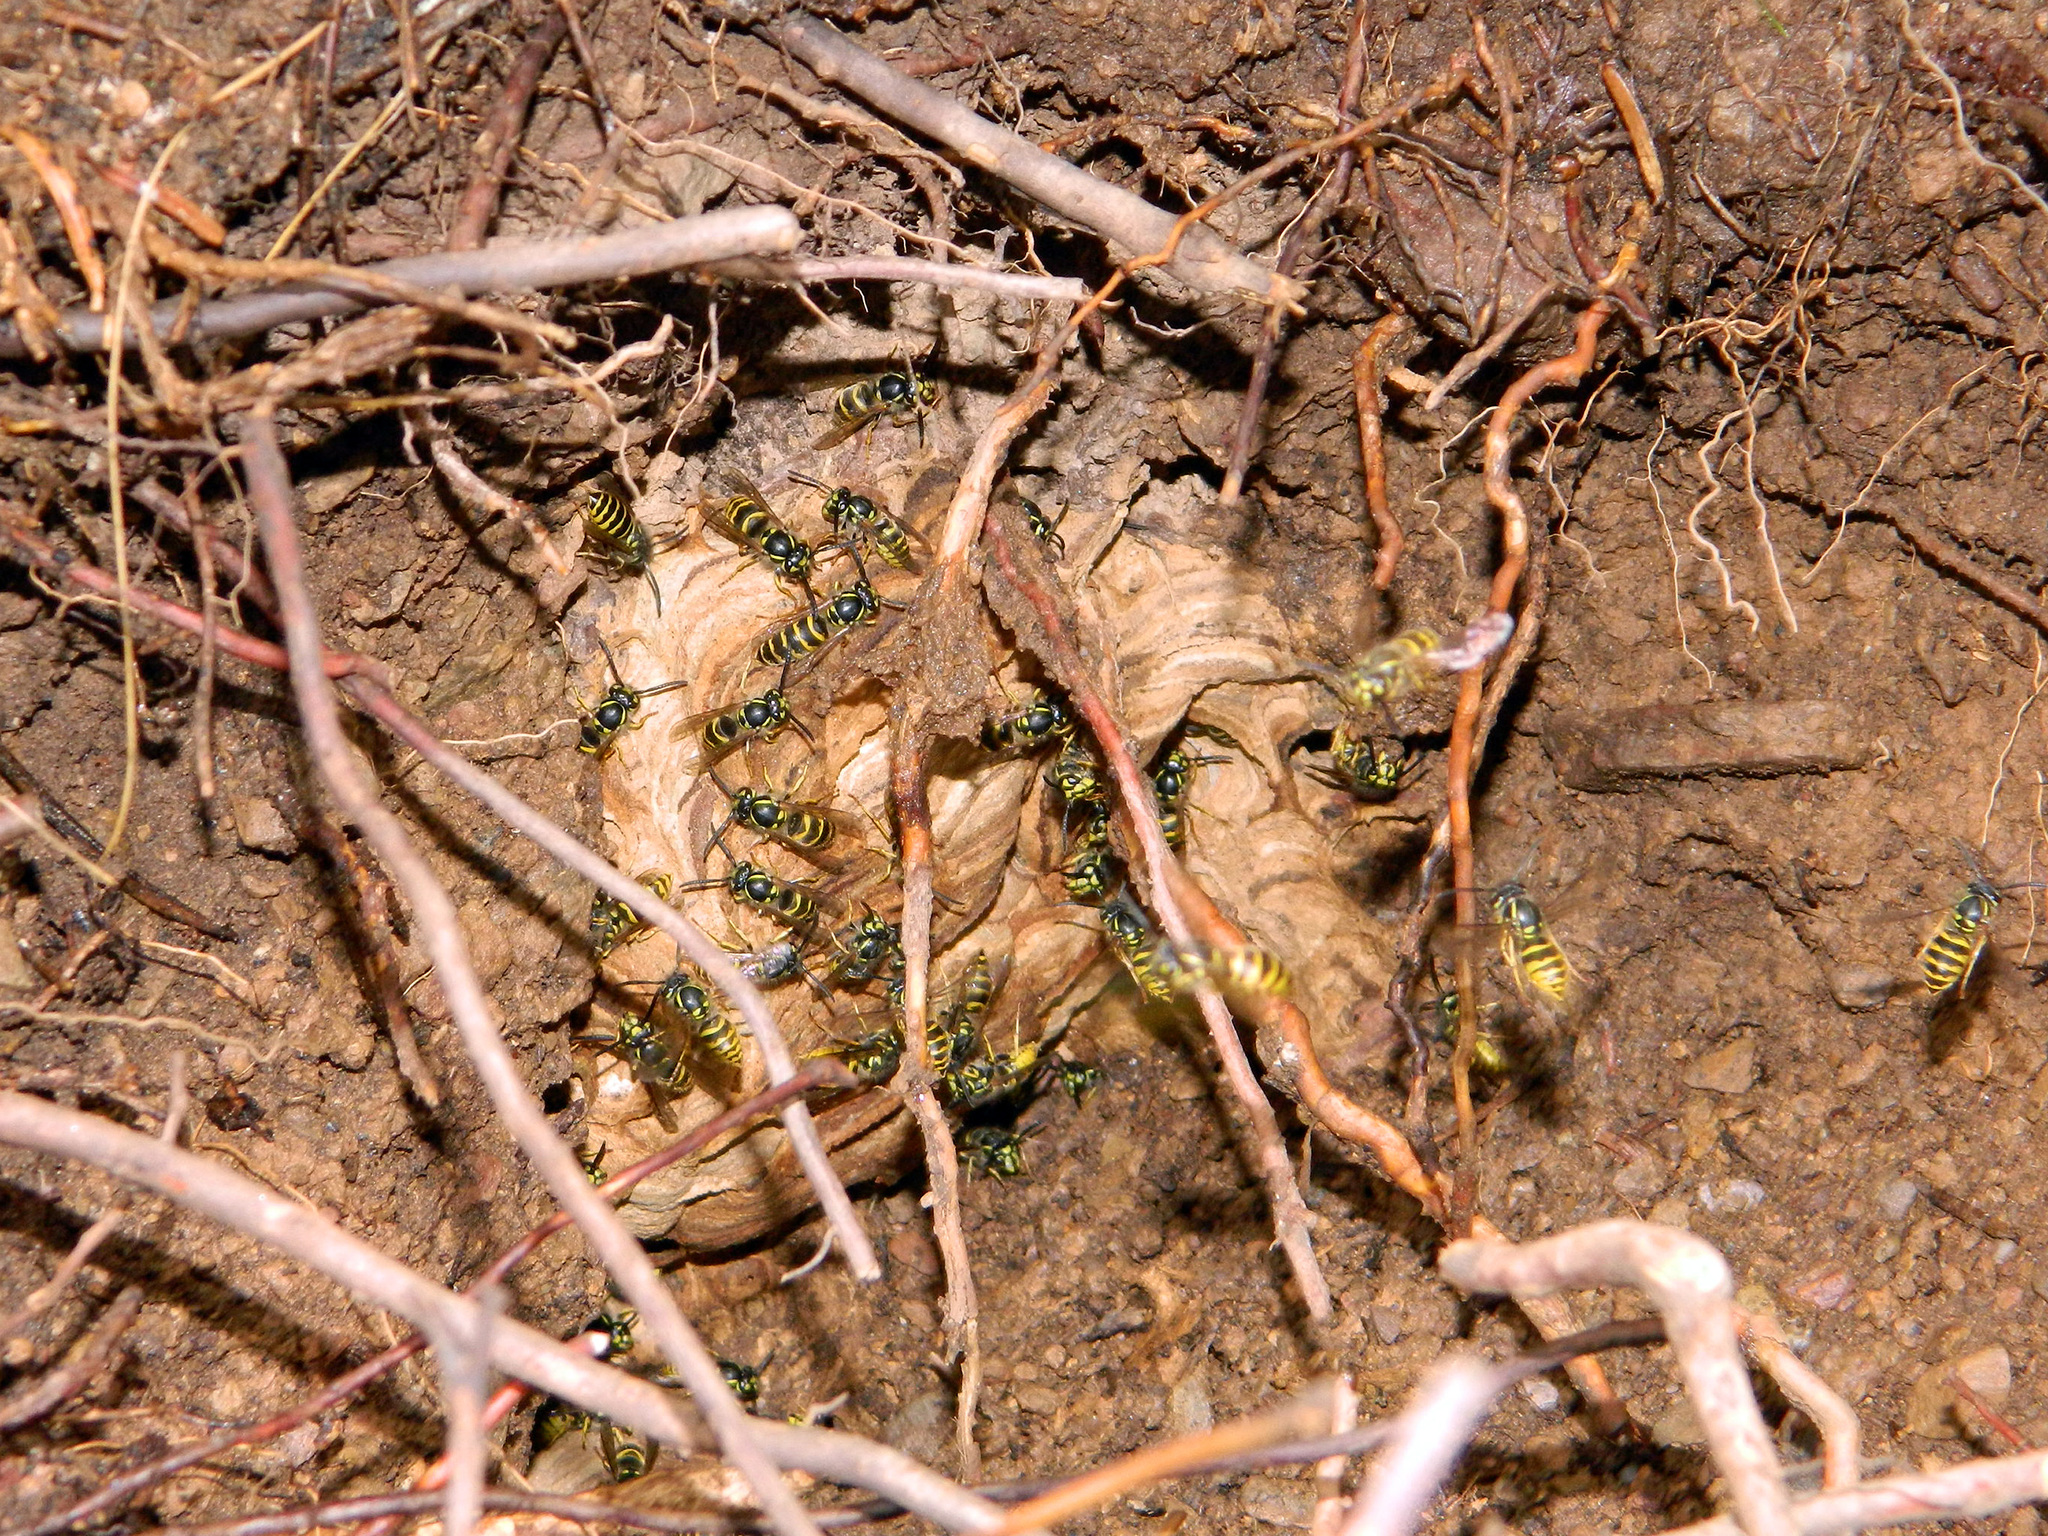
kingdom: Animalia
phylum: Arthropoda
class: Insecta
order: Hymenoptera
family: Vespidae
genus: Vespula
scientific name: Vespula vulgaris
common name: Common wasp
